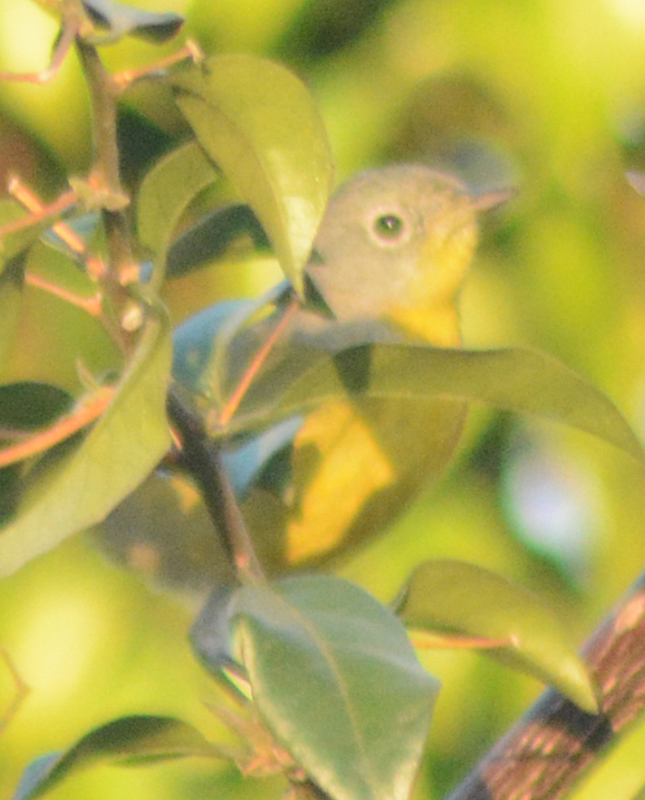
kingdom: Animalia
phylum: Chordata
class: Aves
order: Passeriformes
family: Parulidae
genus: Leiothlypis
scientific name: Leiothlypis ruficapilla
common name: Nashville warbler
